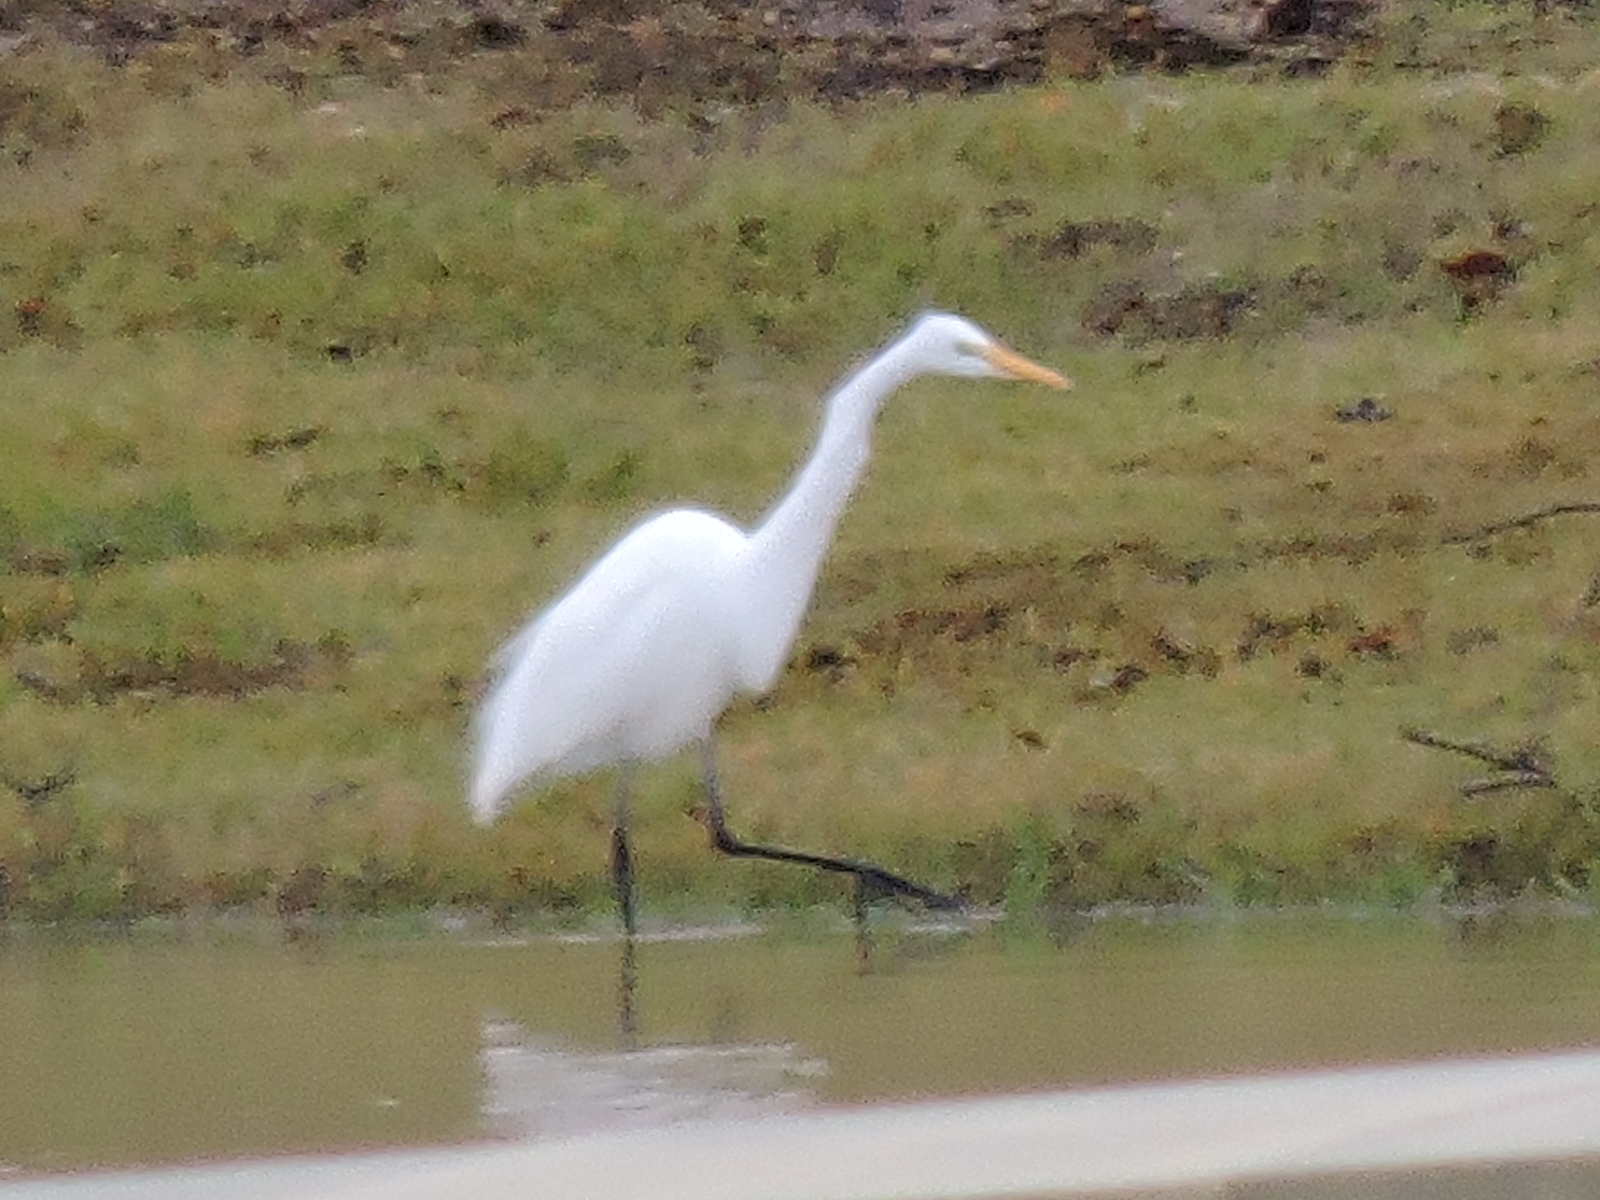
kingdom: Animalia
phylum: Chordata
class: Aves
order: Pelecaniformes
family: Ardeidae
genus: Ardea
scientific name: Ardea alba
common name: Great egret
